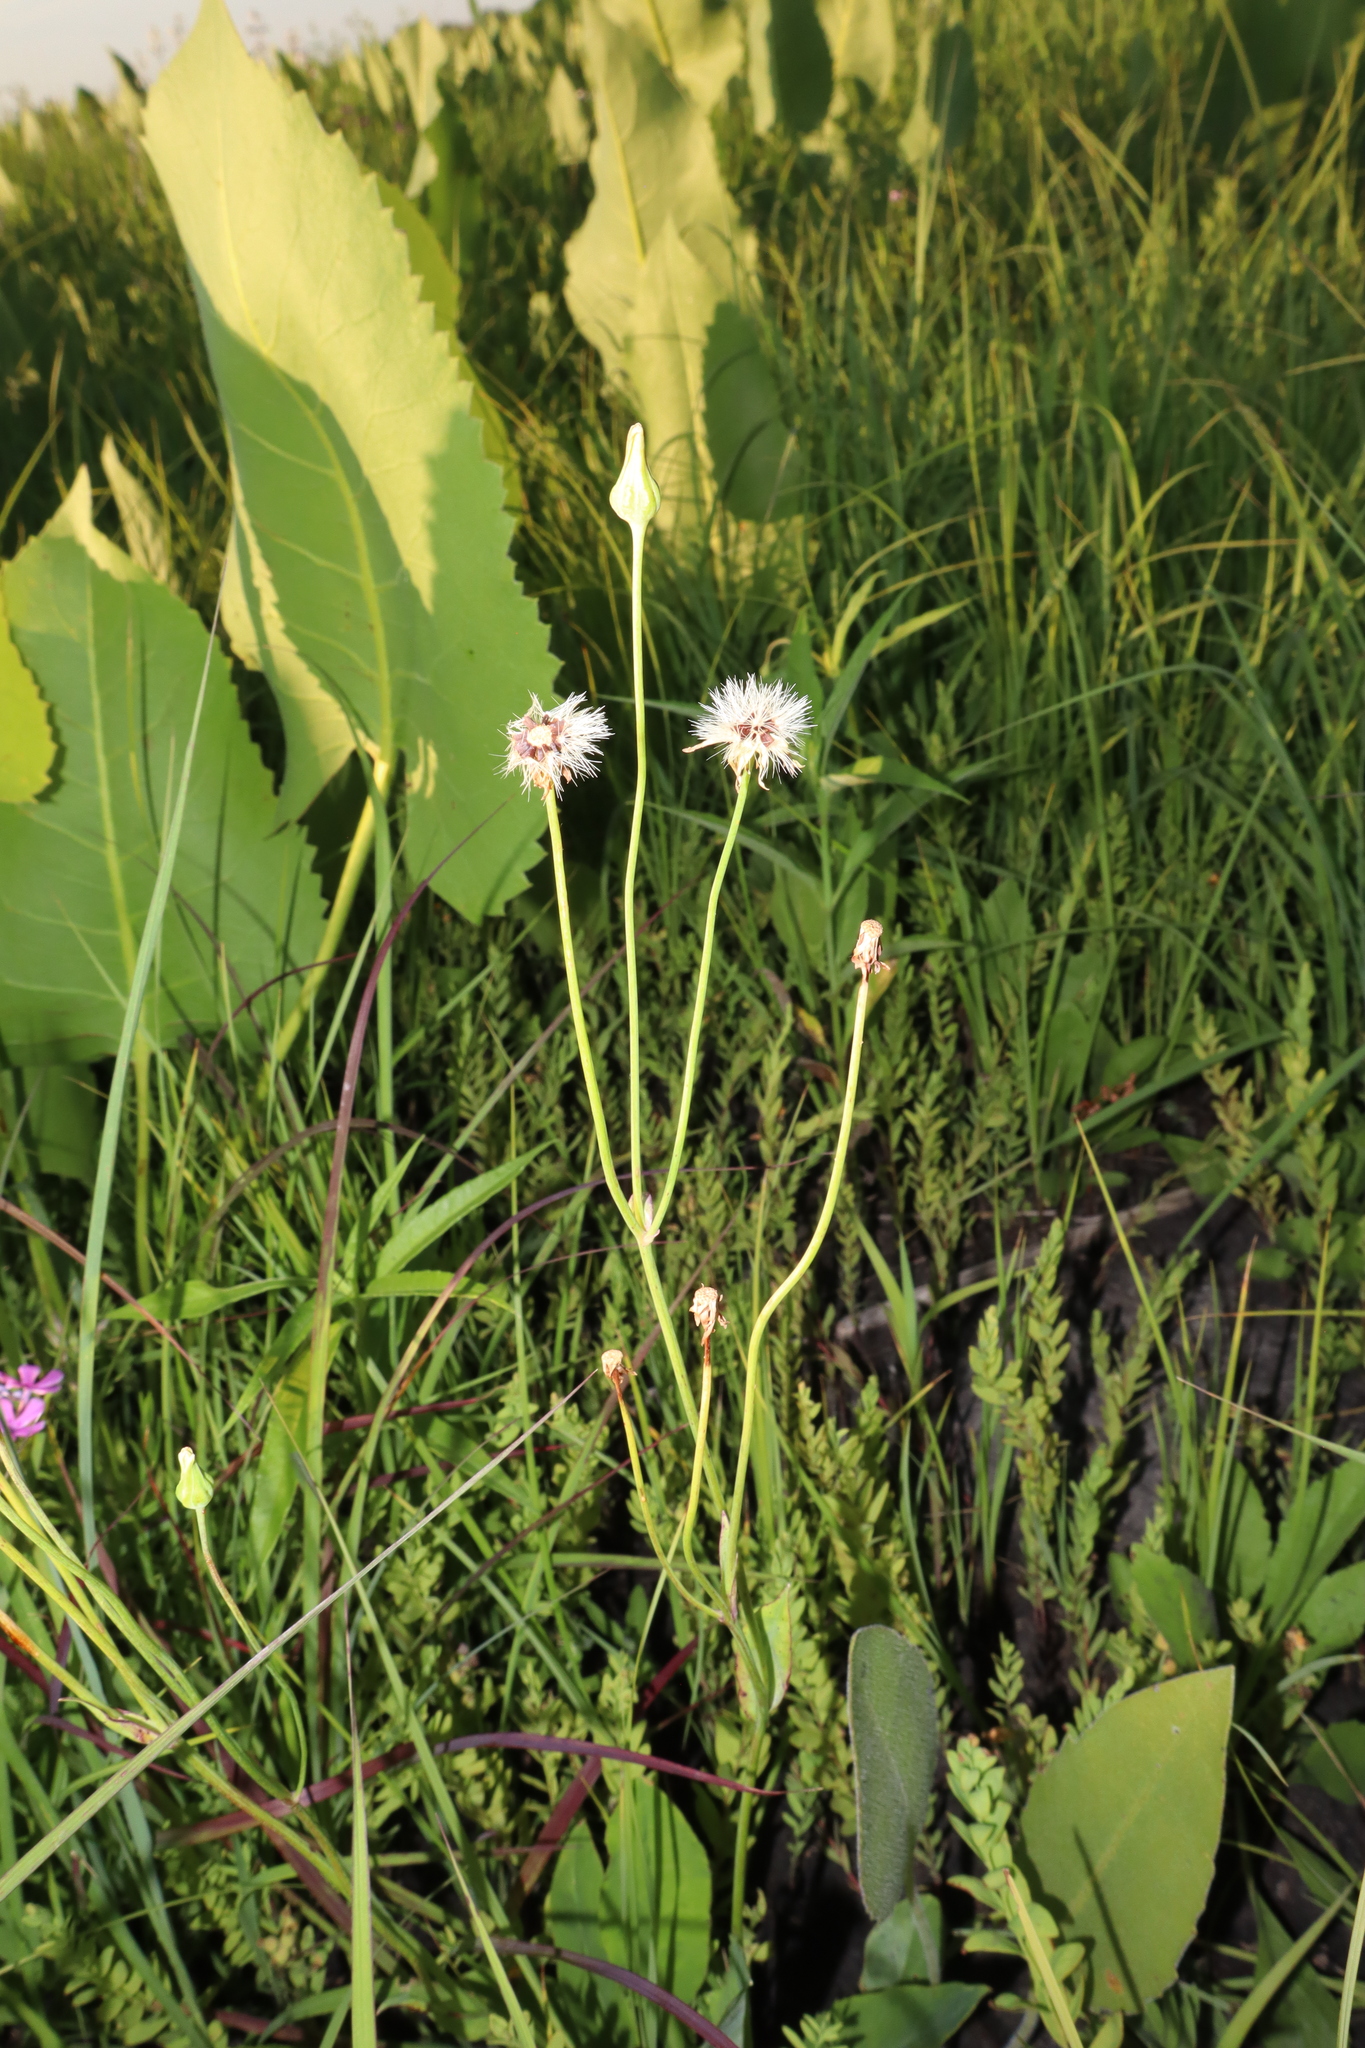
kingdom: Plantae
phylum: Tracheophyta
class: Magnoliopsida
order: Asterales
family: Asteraceae
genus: Krigia
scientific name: Krigia biflora
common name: Orange dwarf-dandelion
